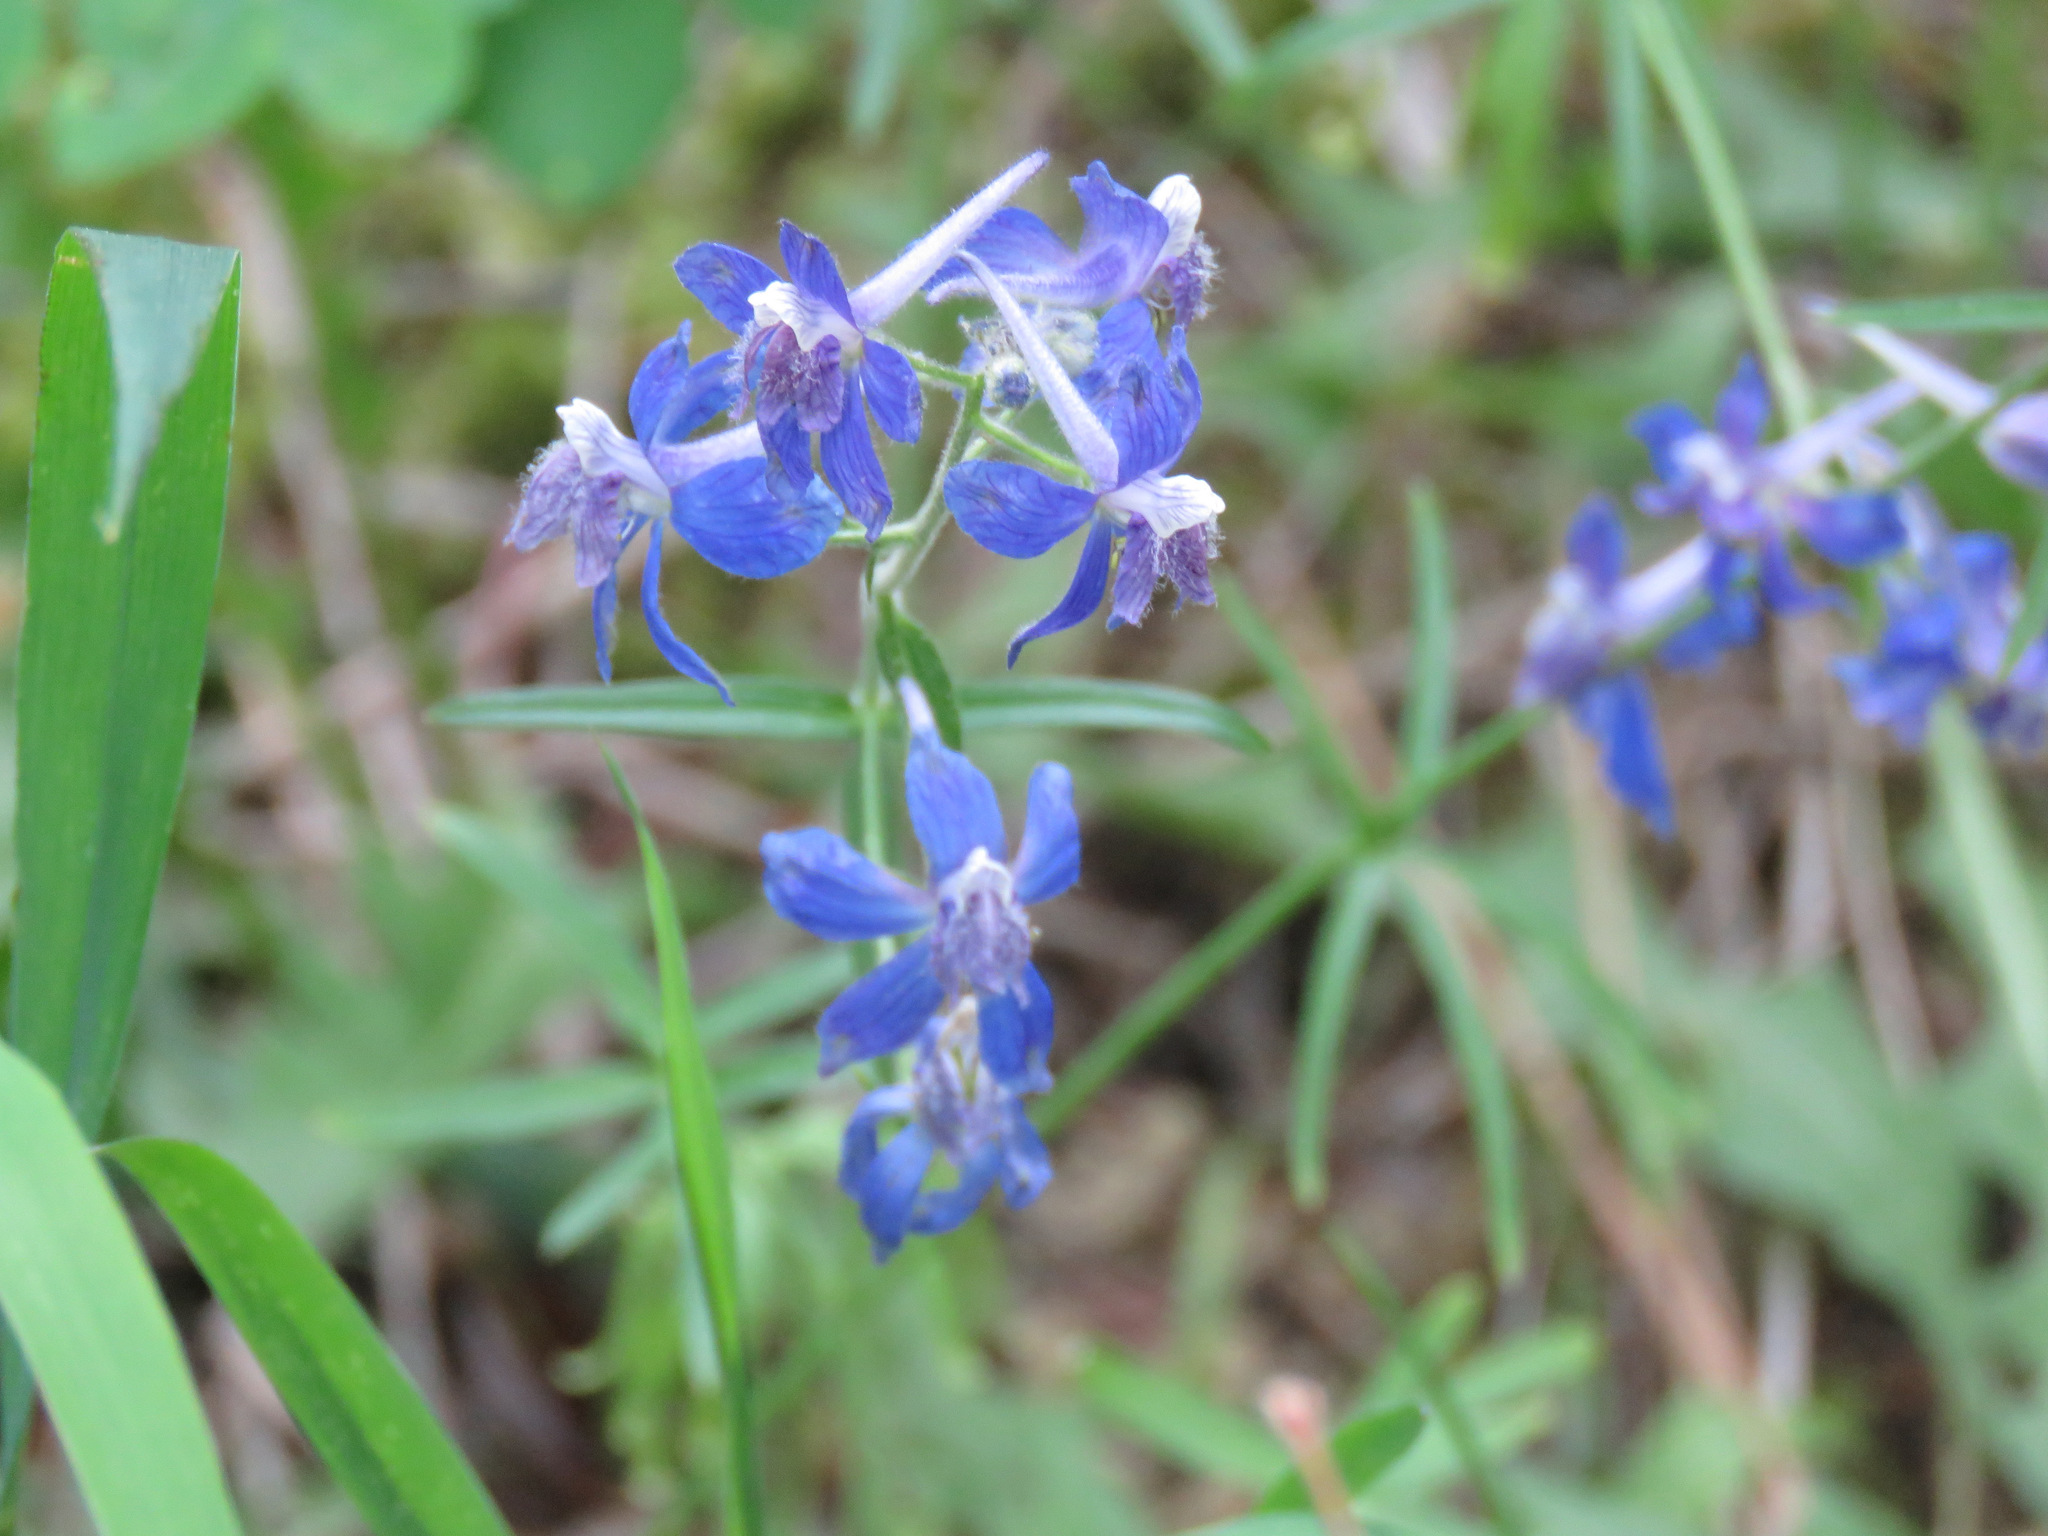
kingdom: Plantae
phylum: Tracheophyta
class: Magnoliopsida
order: Ranunculales
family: Ranunculaceae
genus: Delphinium
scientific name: Delphinium nuttallianum
